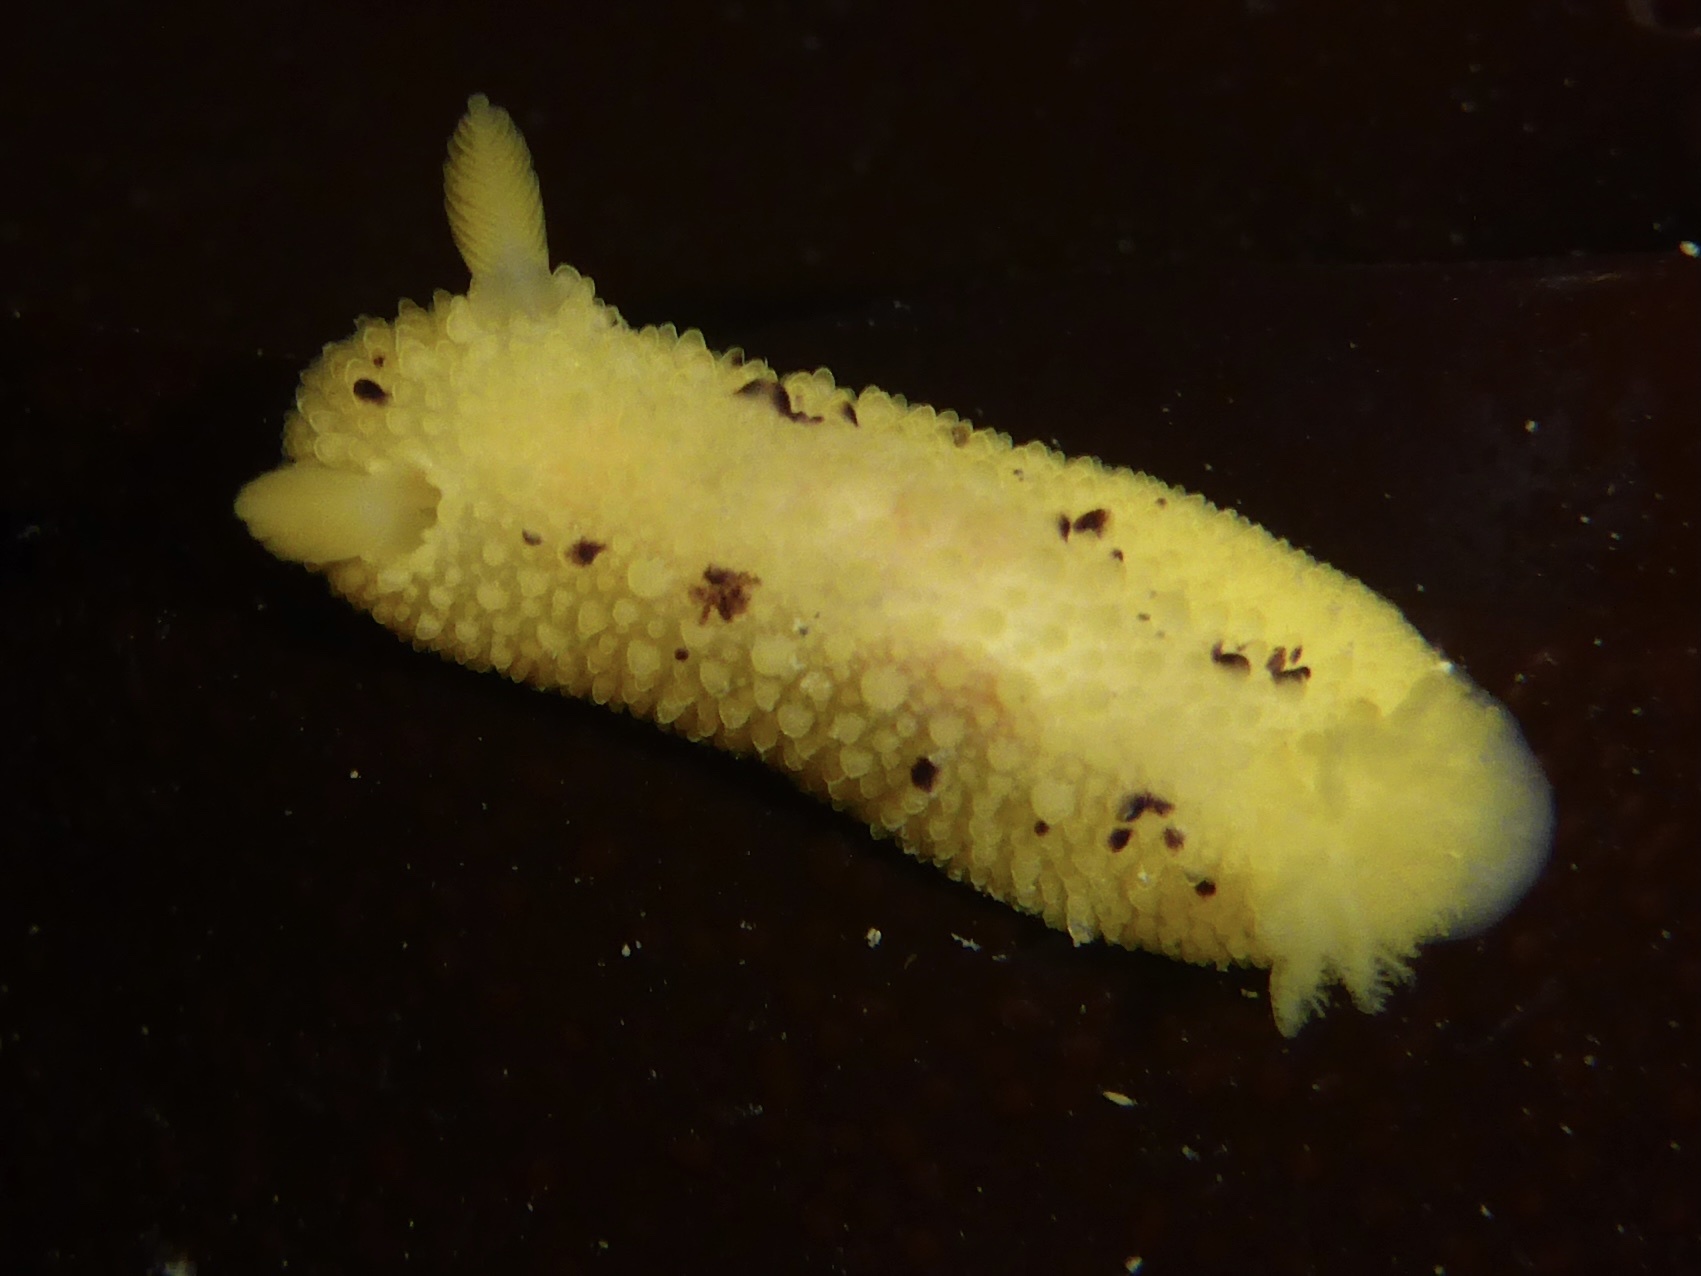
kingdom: Animalia
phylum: Mollusca
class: Gastropoda
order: Nudibranchia
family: Dorididae
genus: Doris
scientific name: Doris montereyensis
